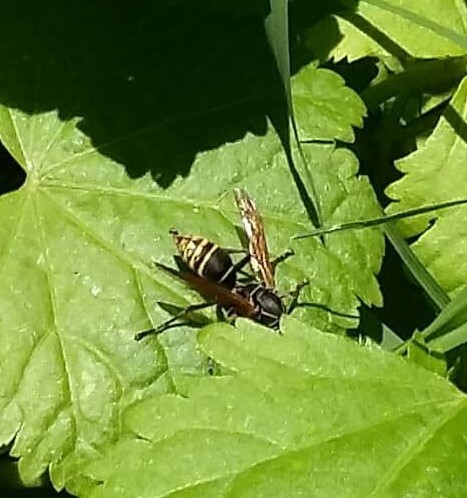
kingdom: Animalia
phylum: Arthropoda
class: Insecta
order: Hymenoptera
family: Eumenidae
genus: Polistes
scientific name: Polistes cinerascens
